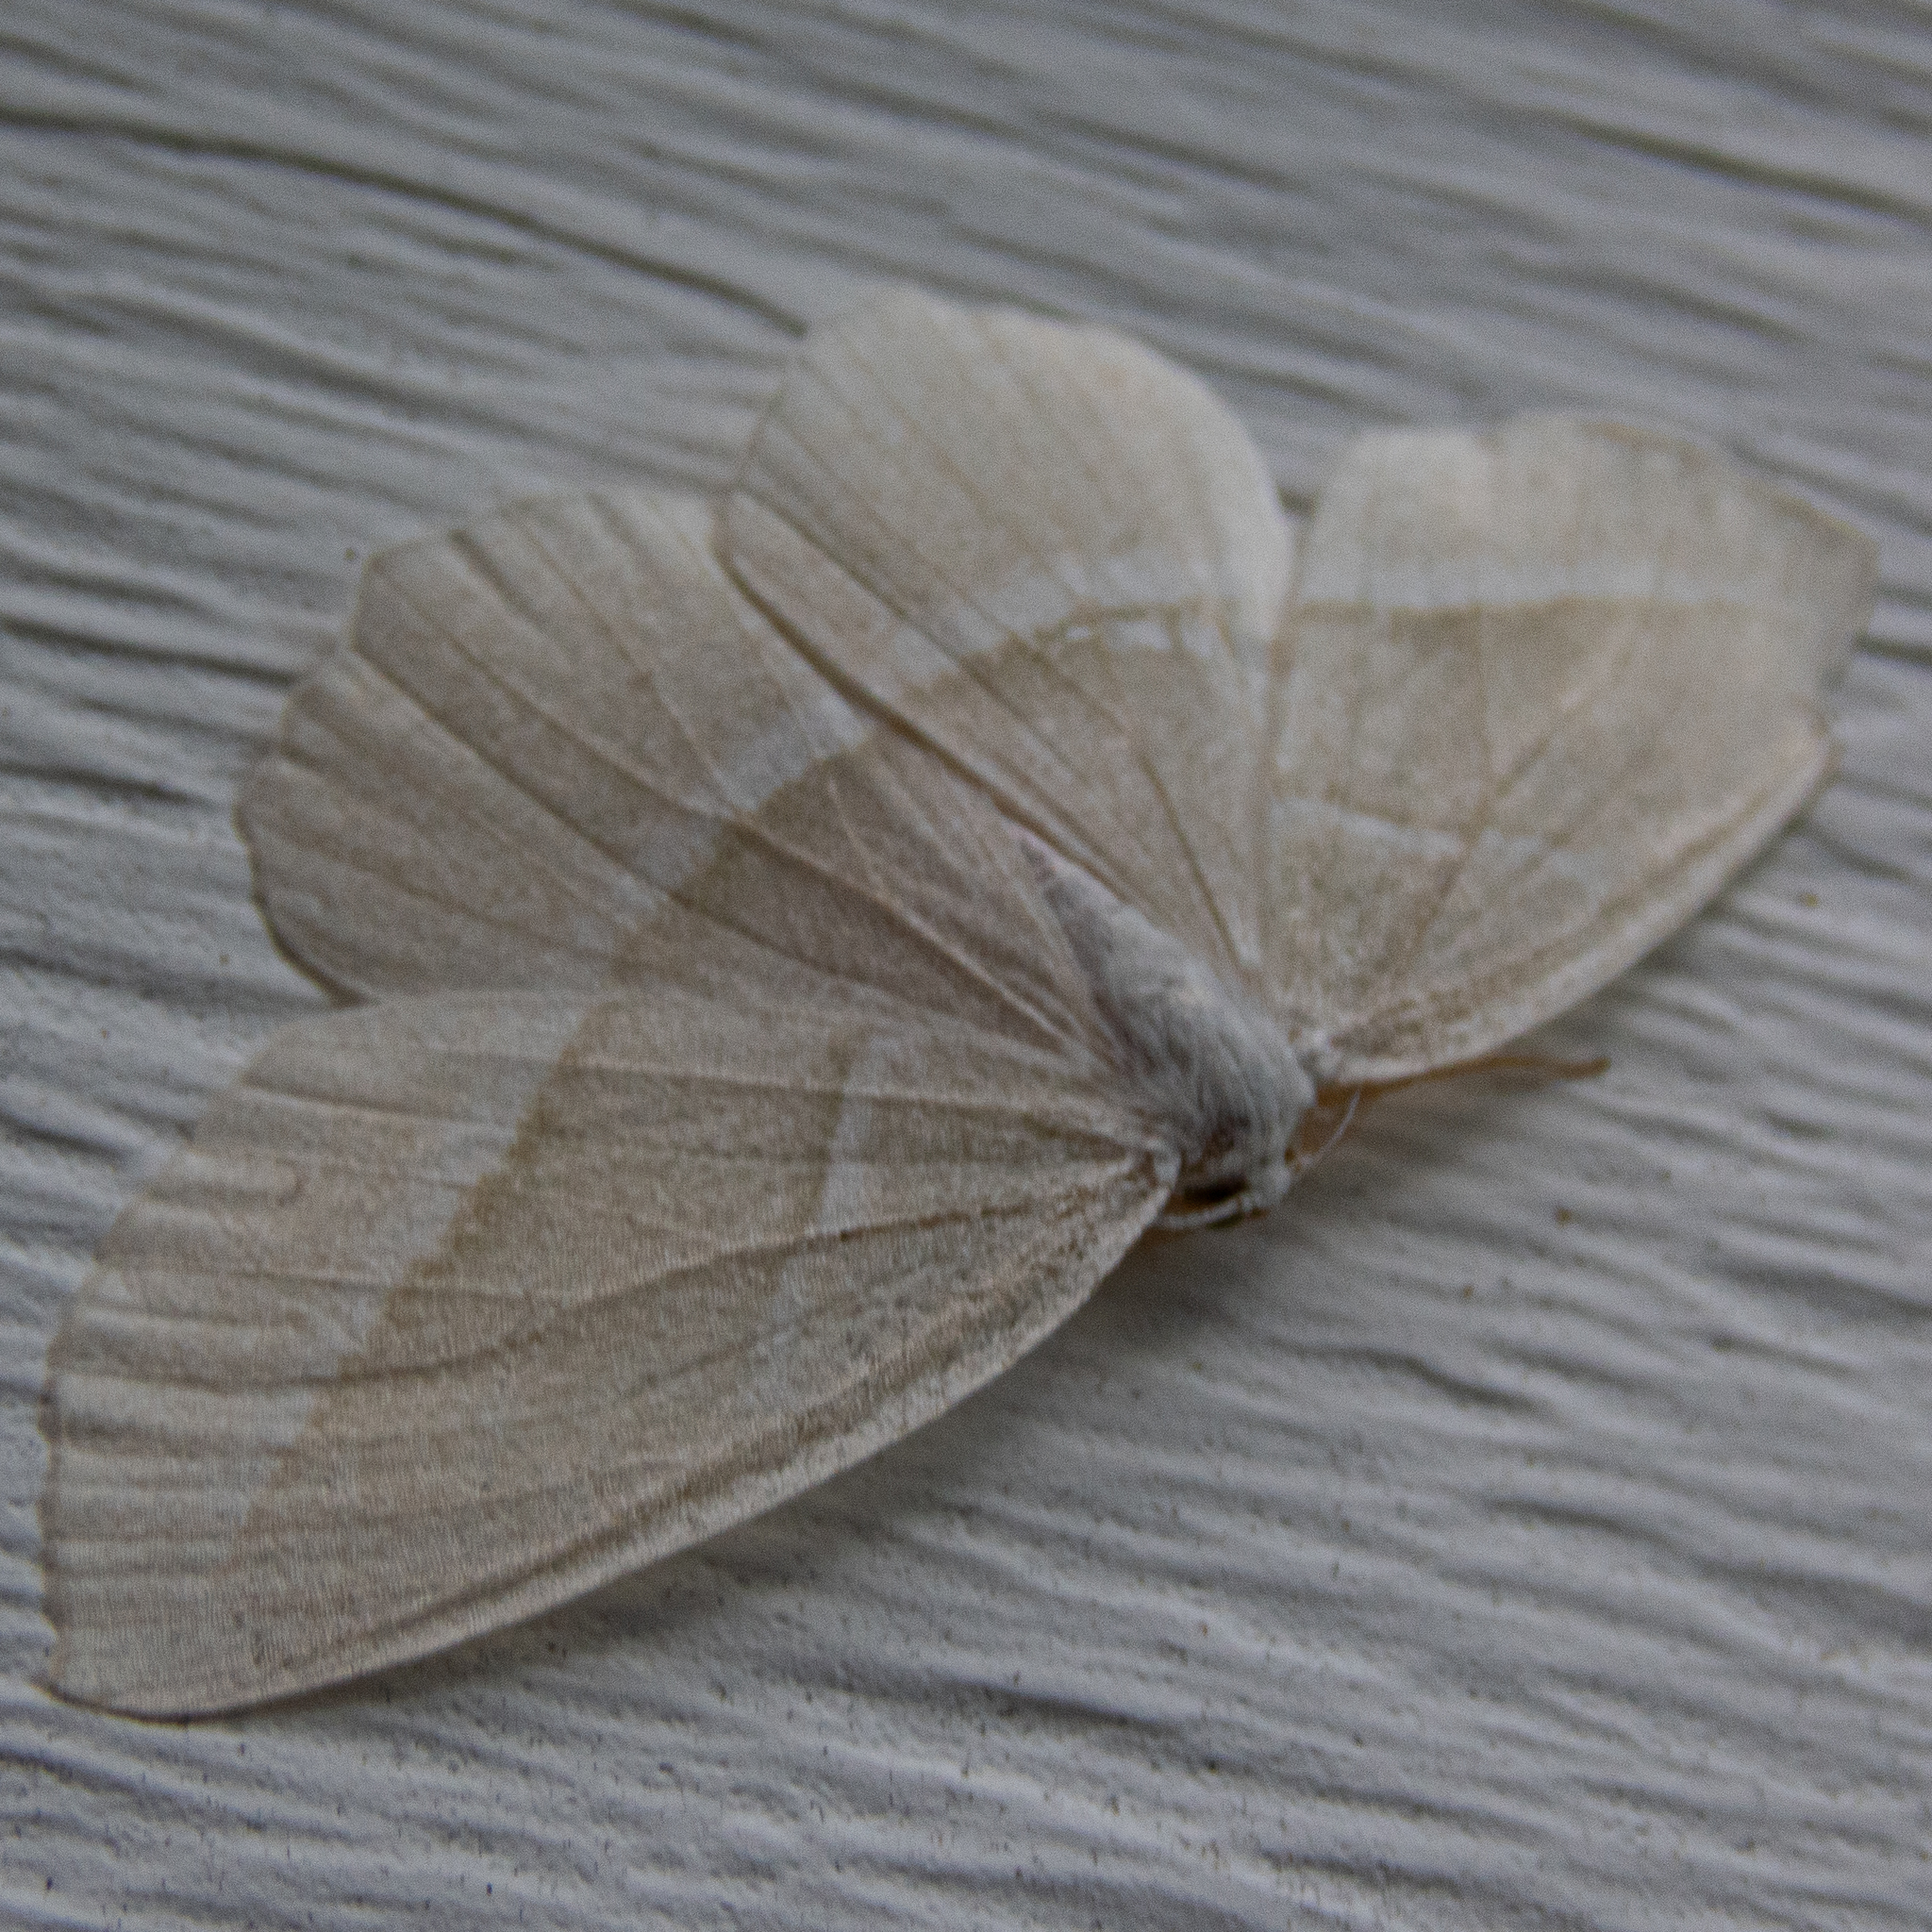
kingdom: Animalia
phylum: Arthropoda
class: Insecta
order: Lepidoptera
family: Geometridae
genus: Campaea
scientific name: Campaea perlata
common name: Fringed looper
